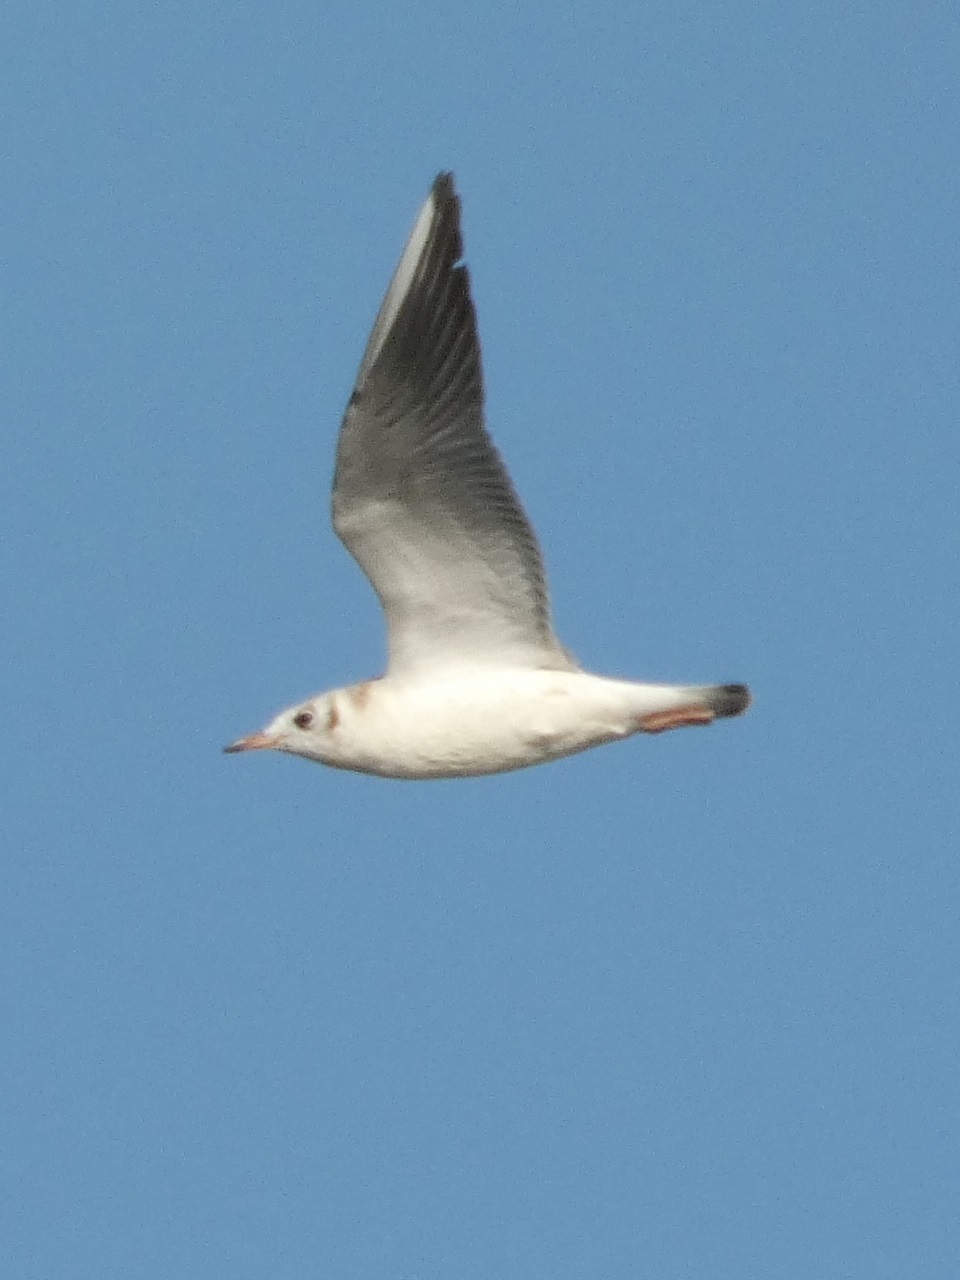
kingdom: Animalia
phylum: Chordata
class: Aves
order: Charadriiformes
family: Laridae
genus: Chroicocephalus
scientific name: Chroicocephalus ridibundus
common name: Black-headed gull
